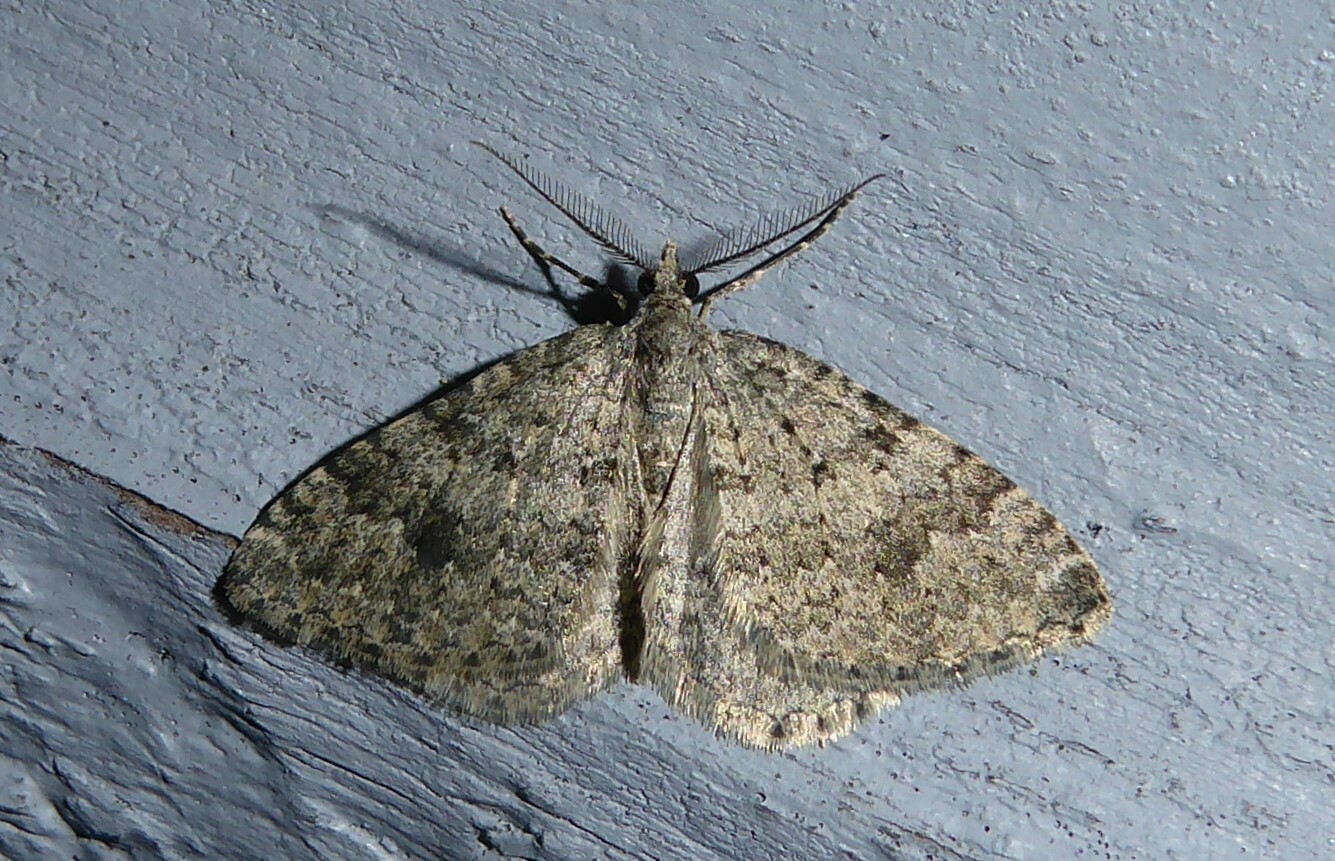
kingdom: Animalia
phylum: Arthropoda
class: Insecta
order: Lepidoptera
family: Geometridae
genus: Helastia
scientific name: Helastia corcularia
